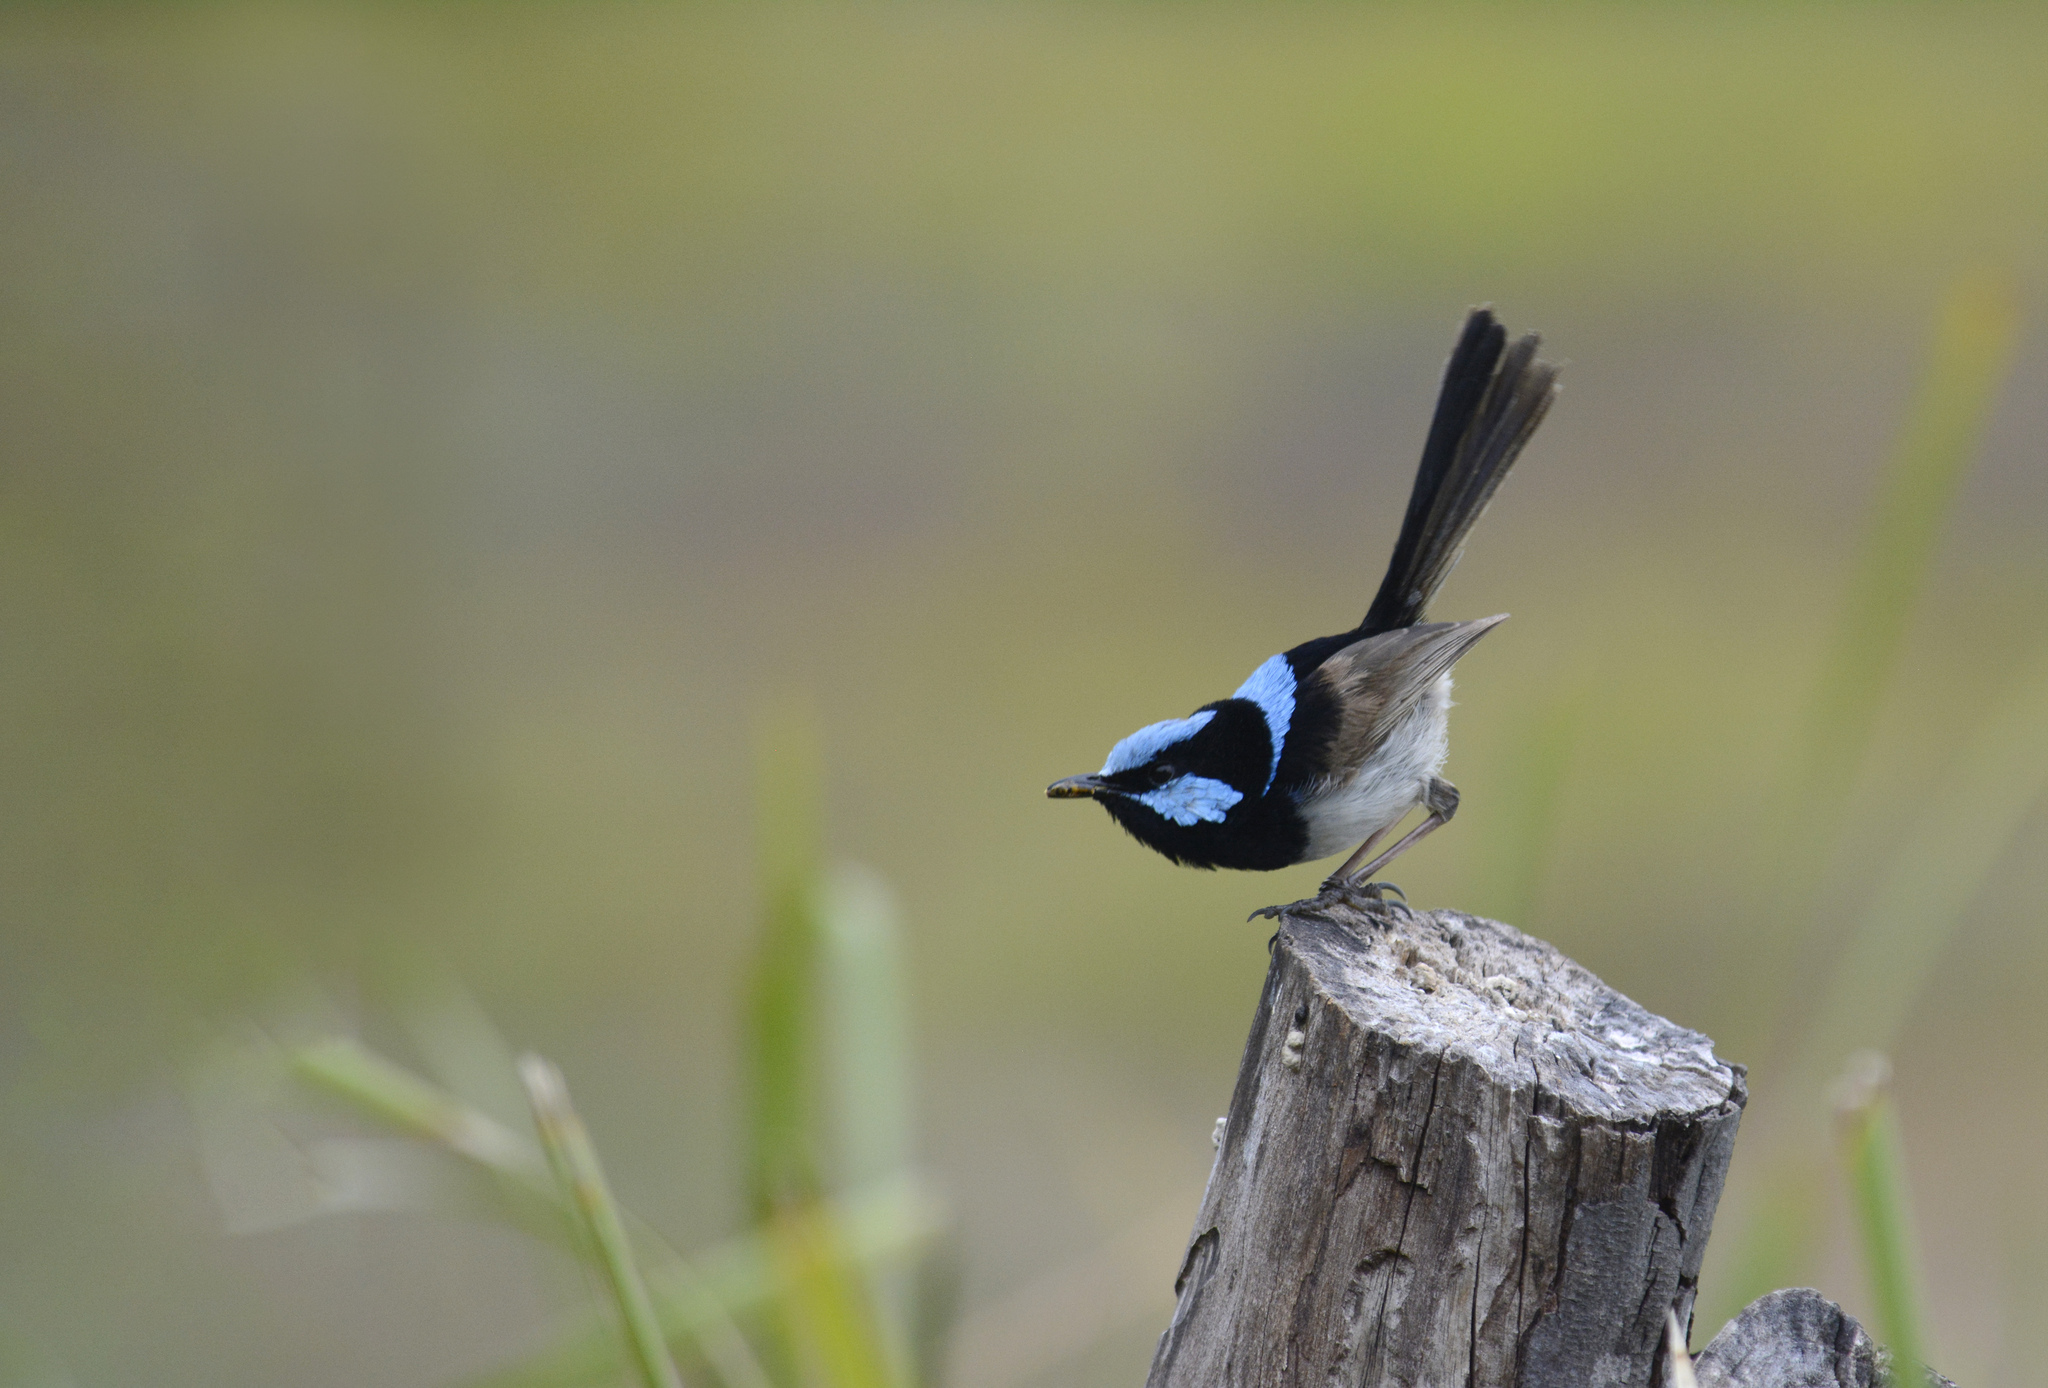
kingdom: Animalia
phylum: Chordata
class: Aves
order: Passeriformes
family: Maluridae
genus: Malurus
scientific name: Malurus cyaneus
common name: Superb fairywren
